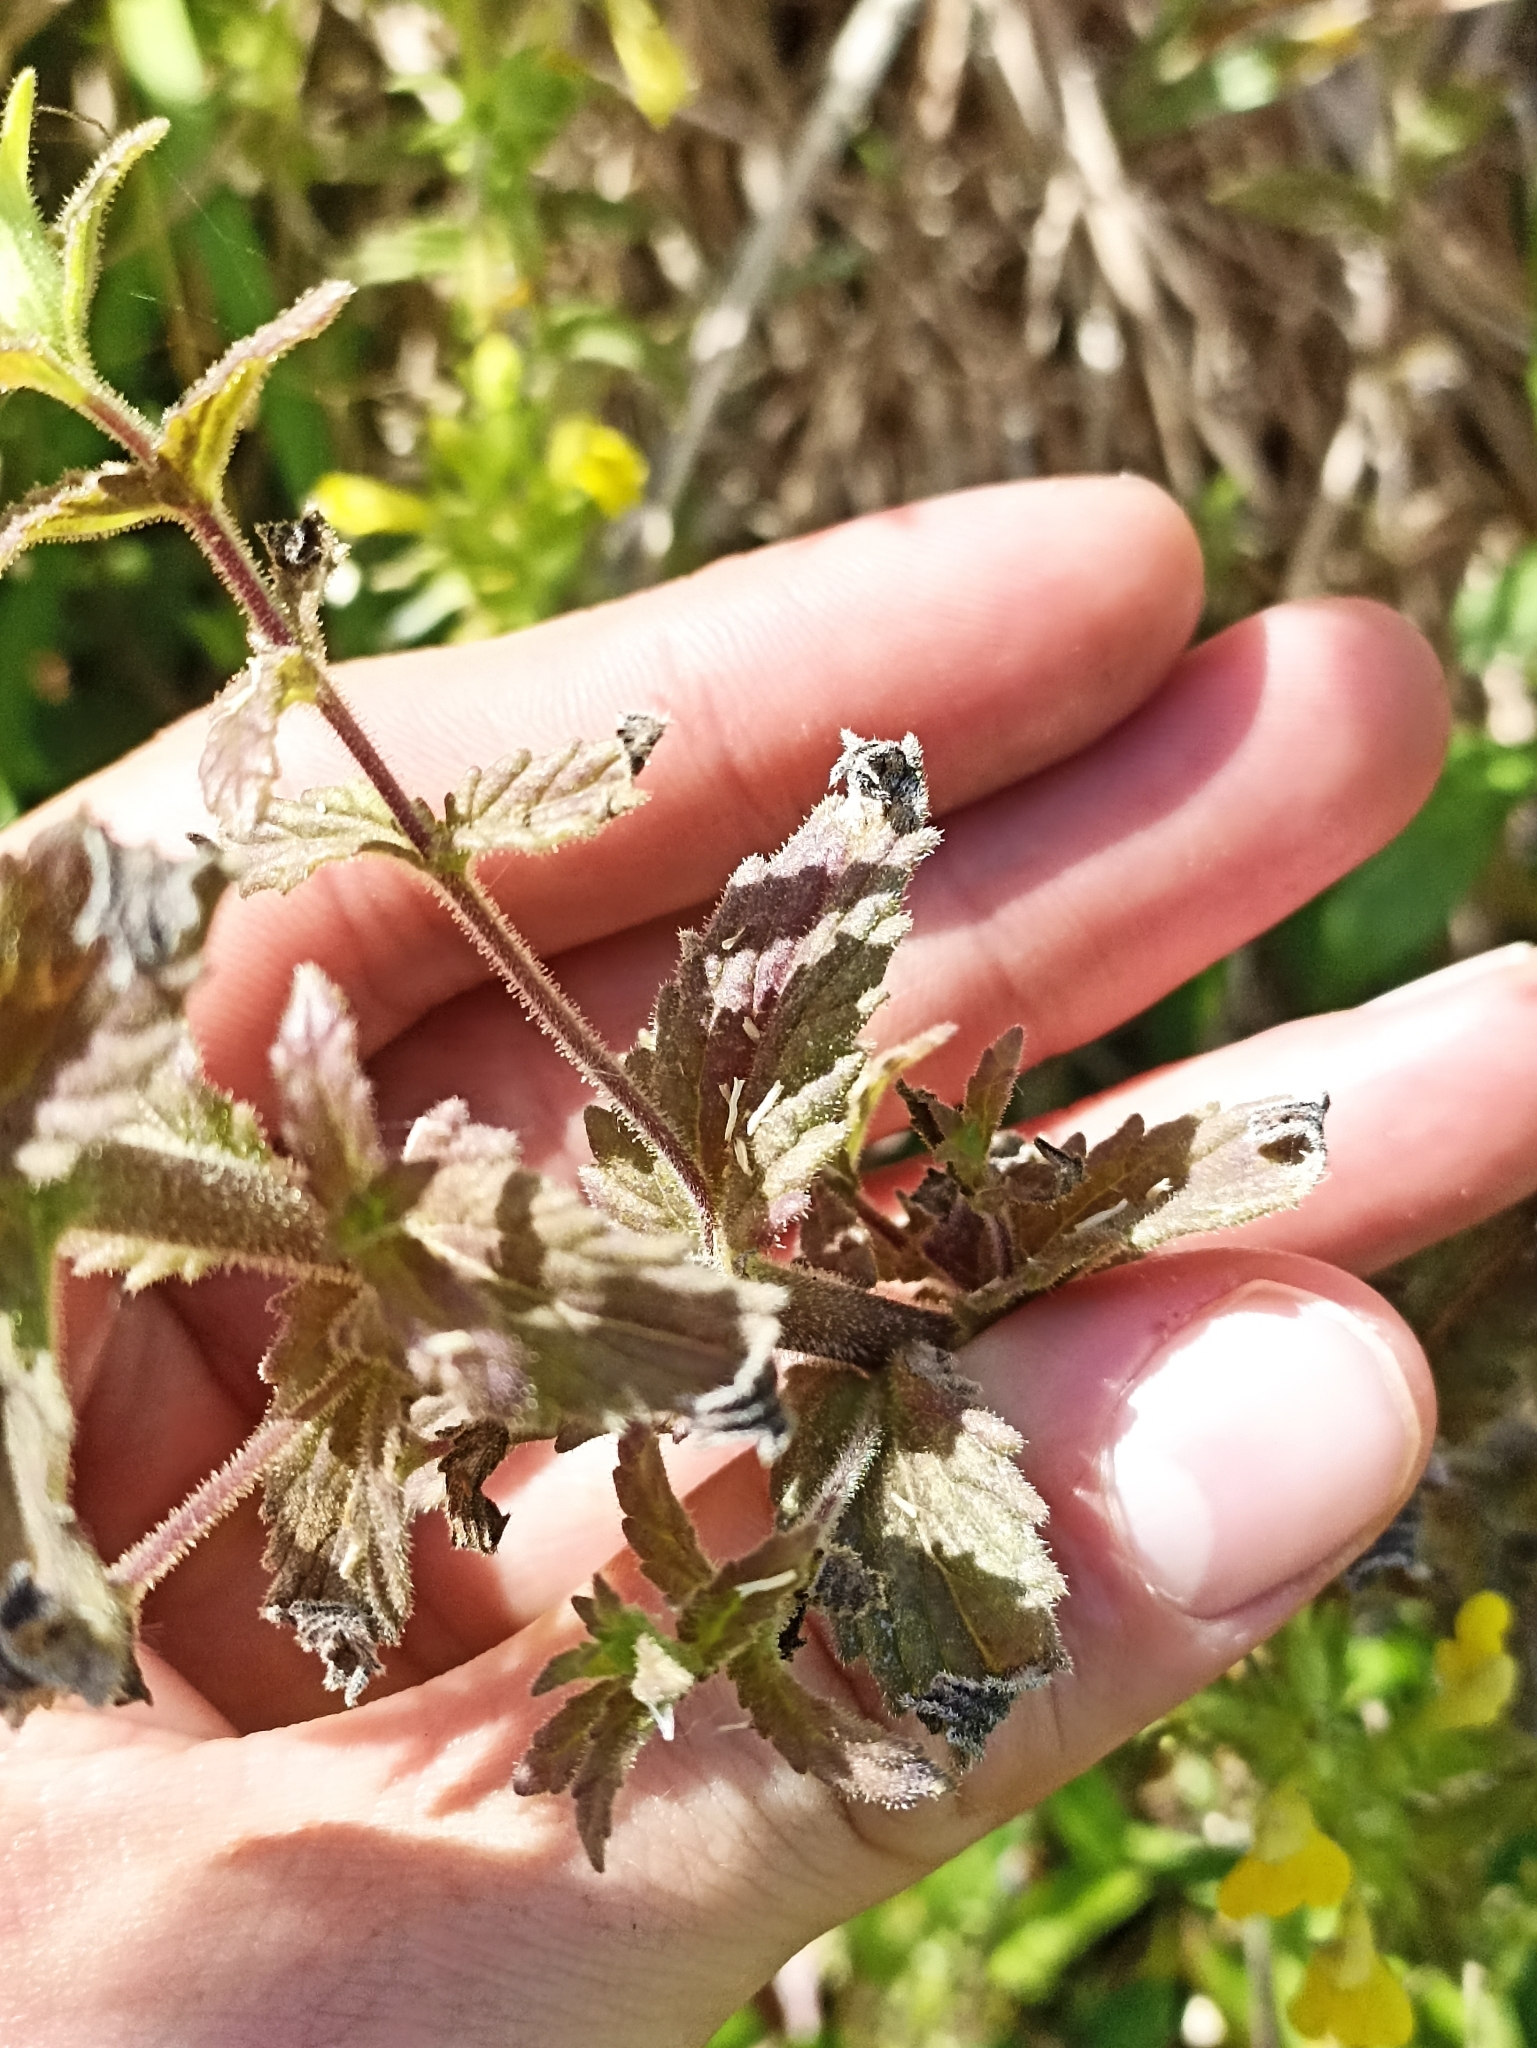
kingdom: Plantae
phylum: Tracheophyta
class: Magnoliopsida
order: Lamiales
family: Orobanchaceae
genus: Bellardia
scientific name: Bellardia viscosa
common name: Sticky parentucellia
